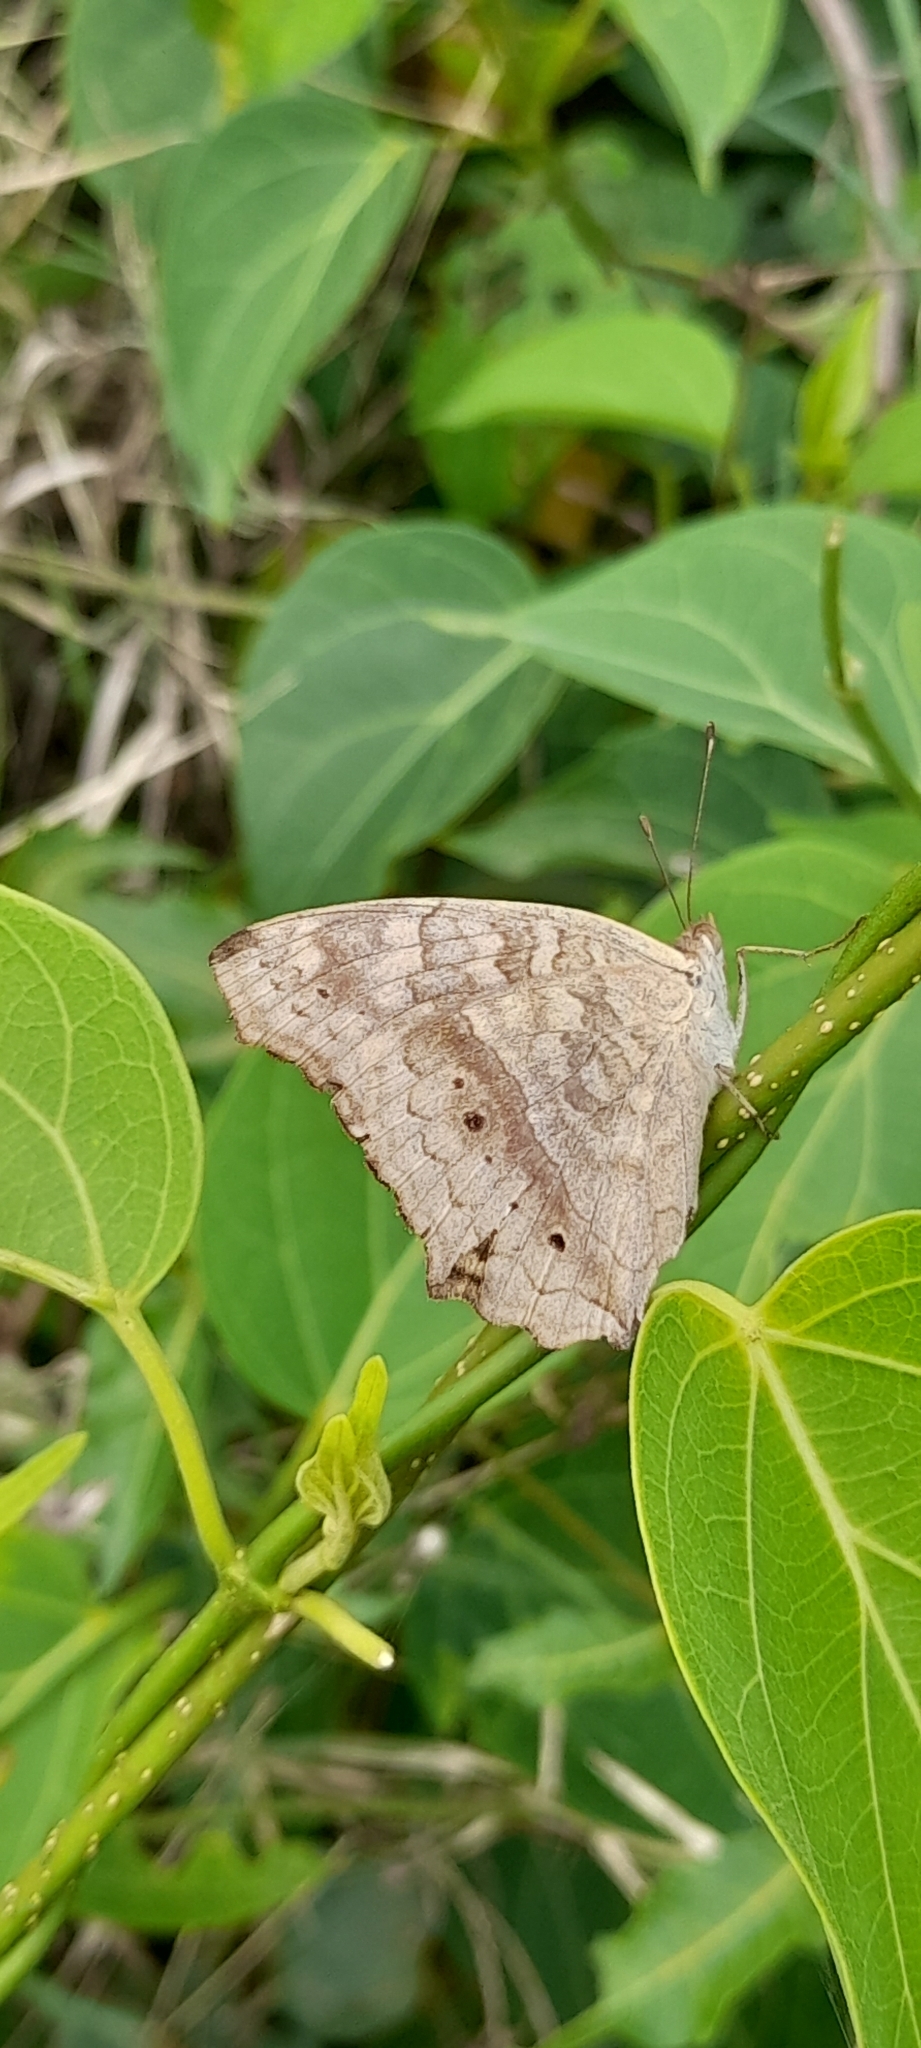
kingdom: Animalia
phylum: Arthropoda
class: Insecta
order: Lepidoptera
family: Nymphalidae
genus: Junonia
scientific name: Junonia lemonias
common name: Lemon pansy
